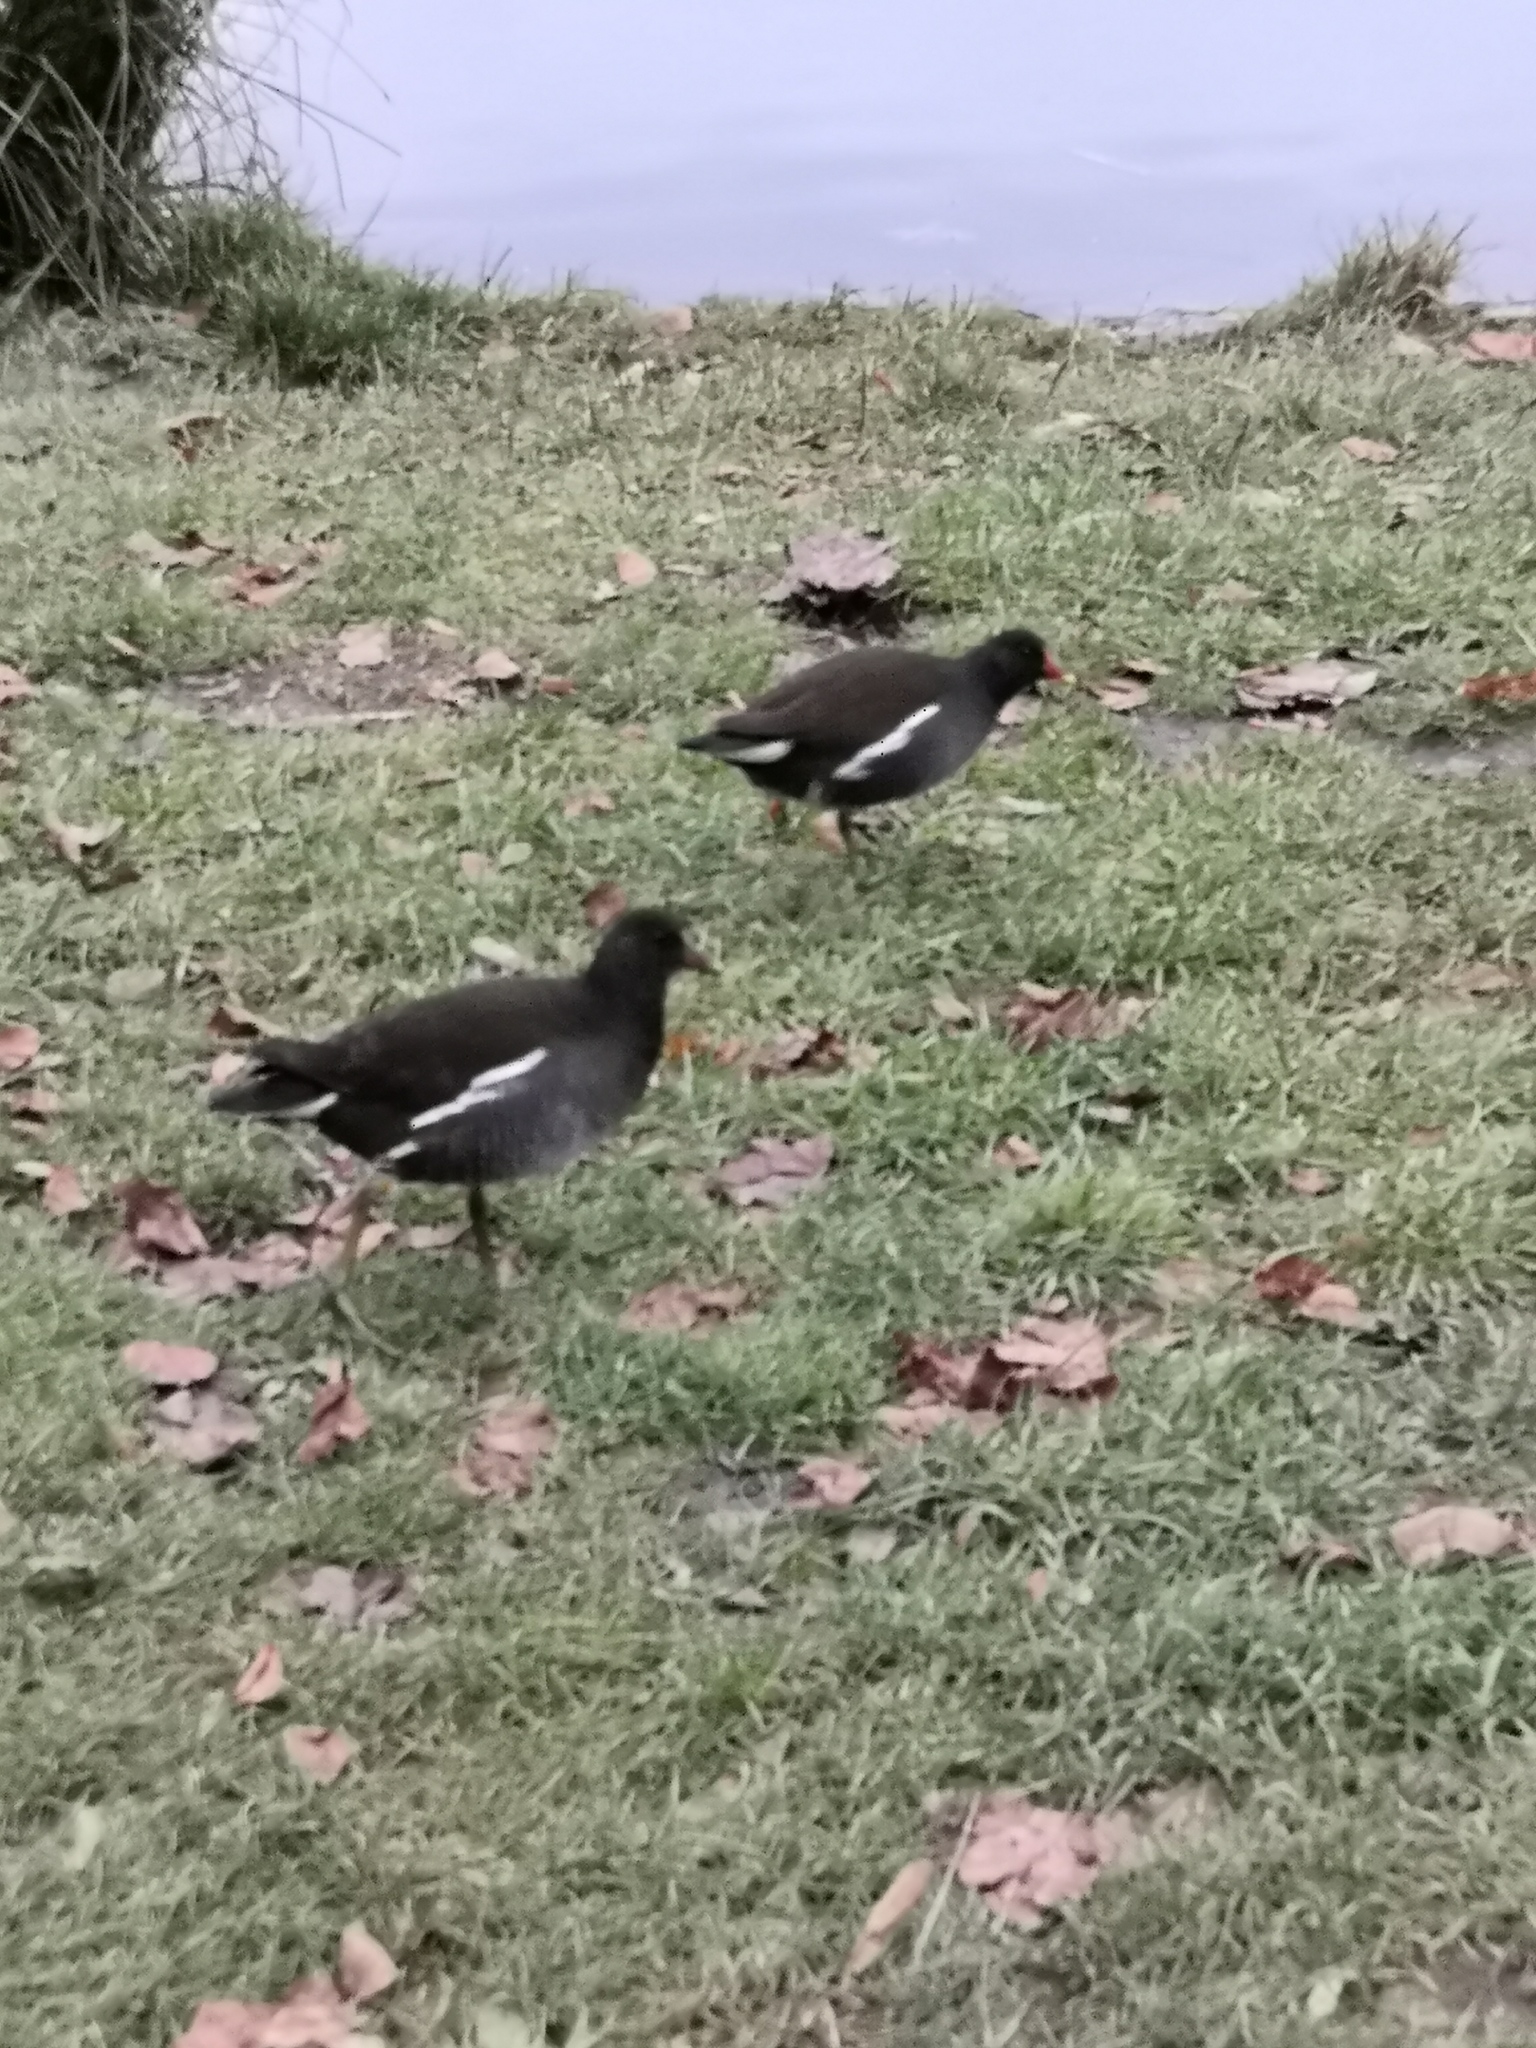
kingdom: Animalia
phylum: Chordata
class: Aves
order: Gruiformes
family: Rallidae
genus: Gallinula
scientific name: Gallinula chloropus
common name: Common moorhen
